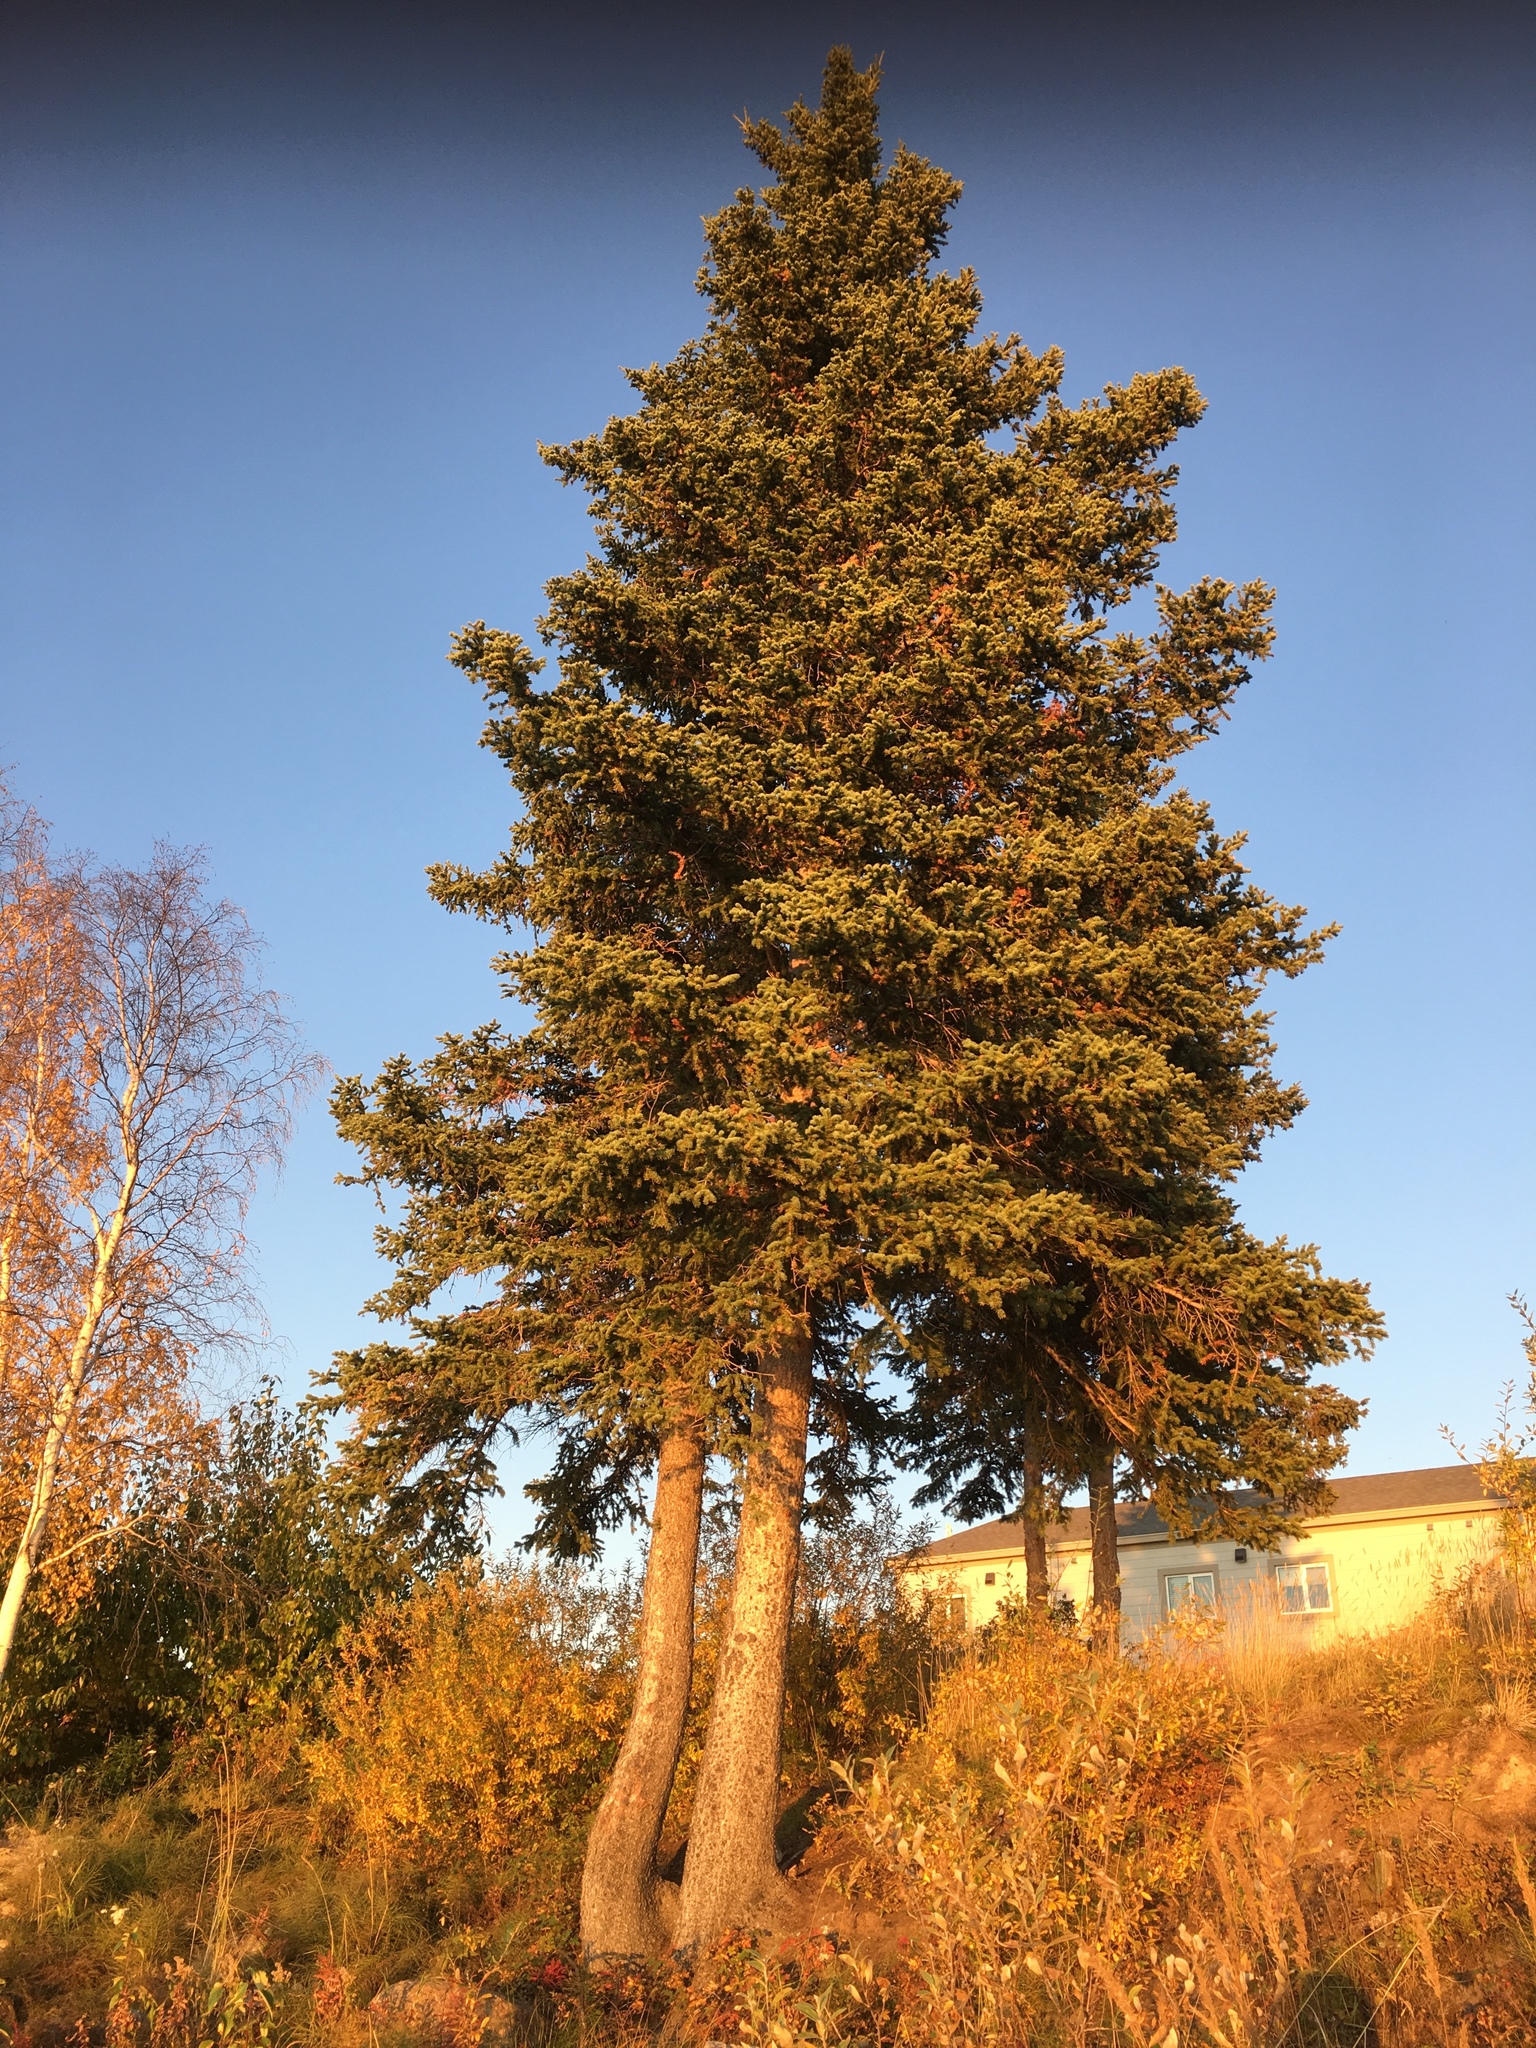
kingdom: Plantae
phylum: Tracheophyta
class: Pinopsida
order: Pinales
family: Pinaceae
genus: Picea
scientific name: Picea glauca
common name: White spruce
